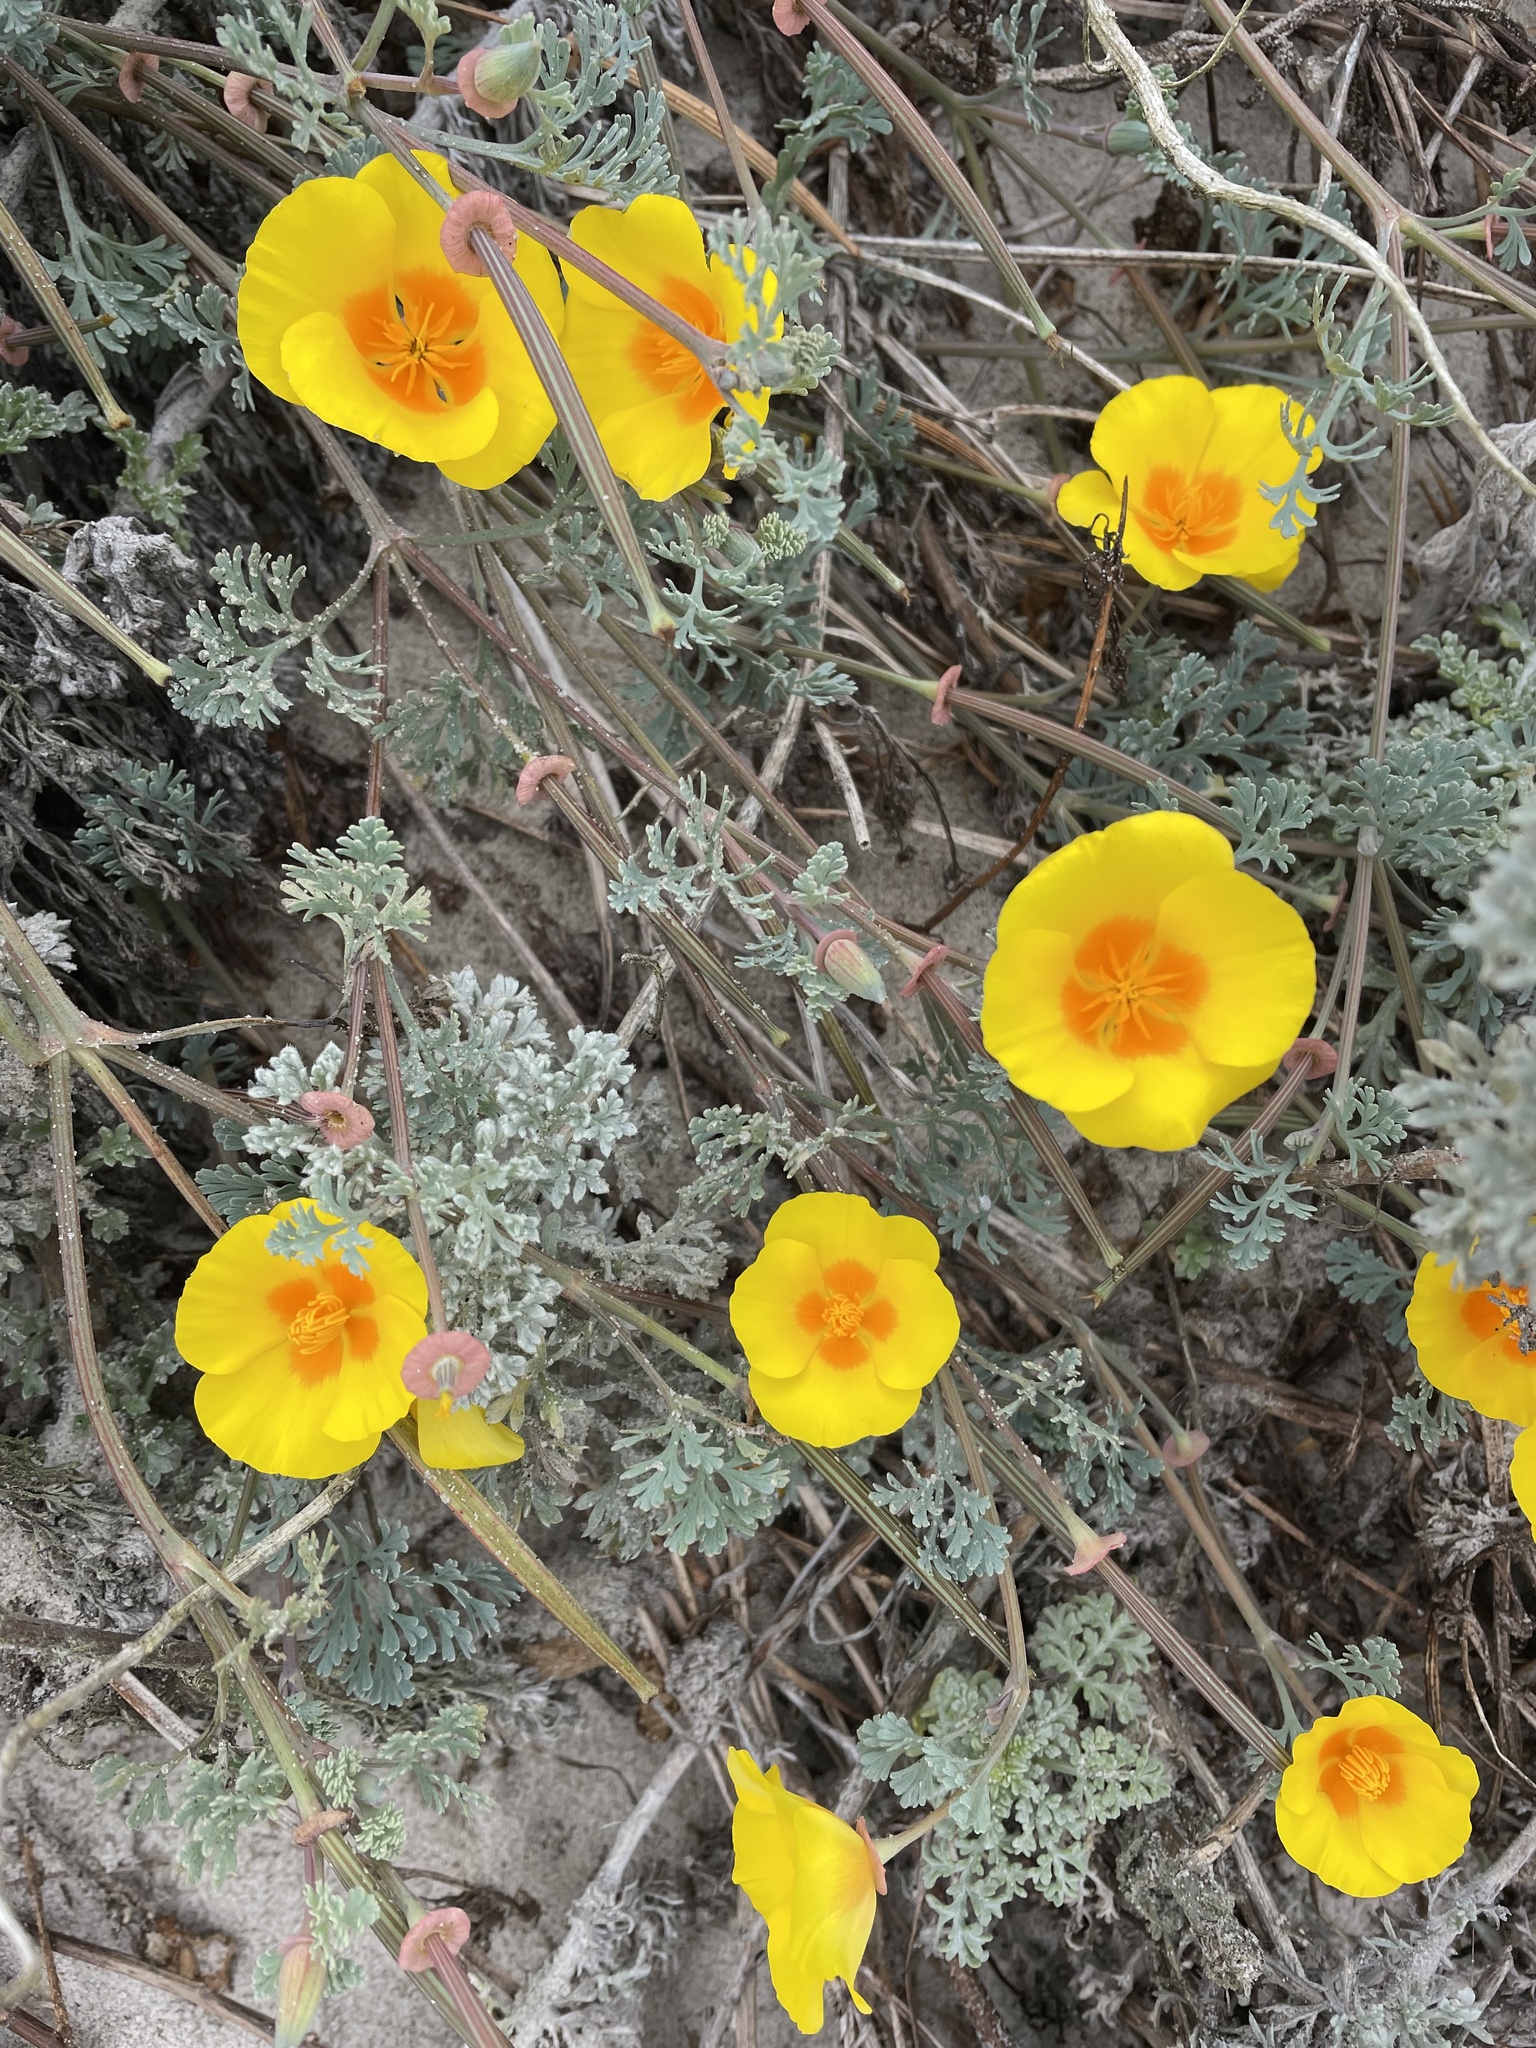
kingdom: Plantae
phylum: Tracheophyta
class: Magnoliopsida
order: Ranunculales
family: Papaveraceae
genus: Eschscholzia
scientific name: Eschscholzia californica
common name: California poppy
